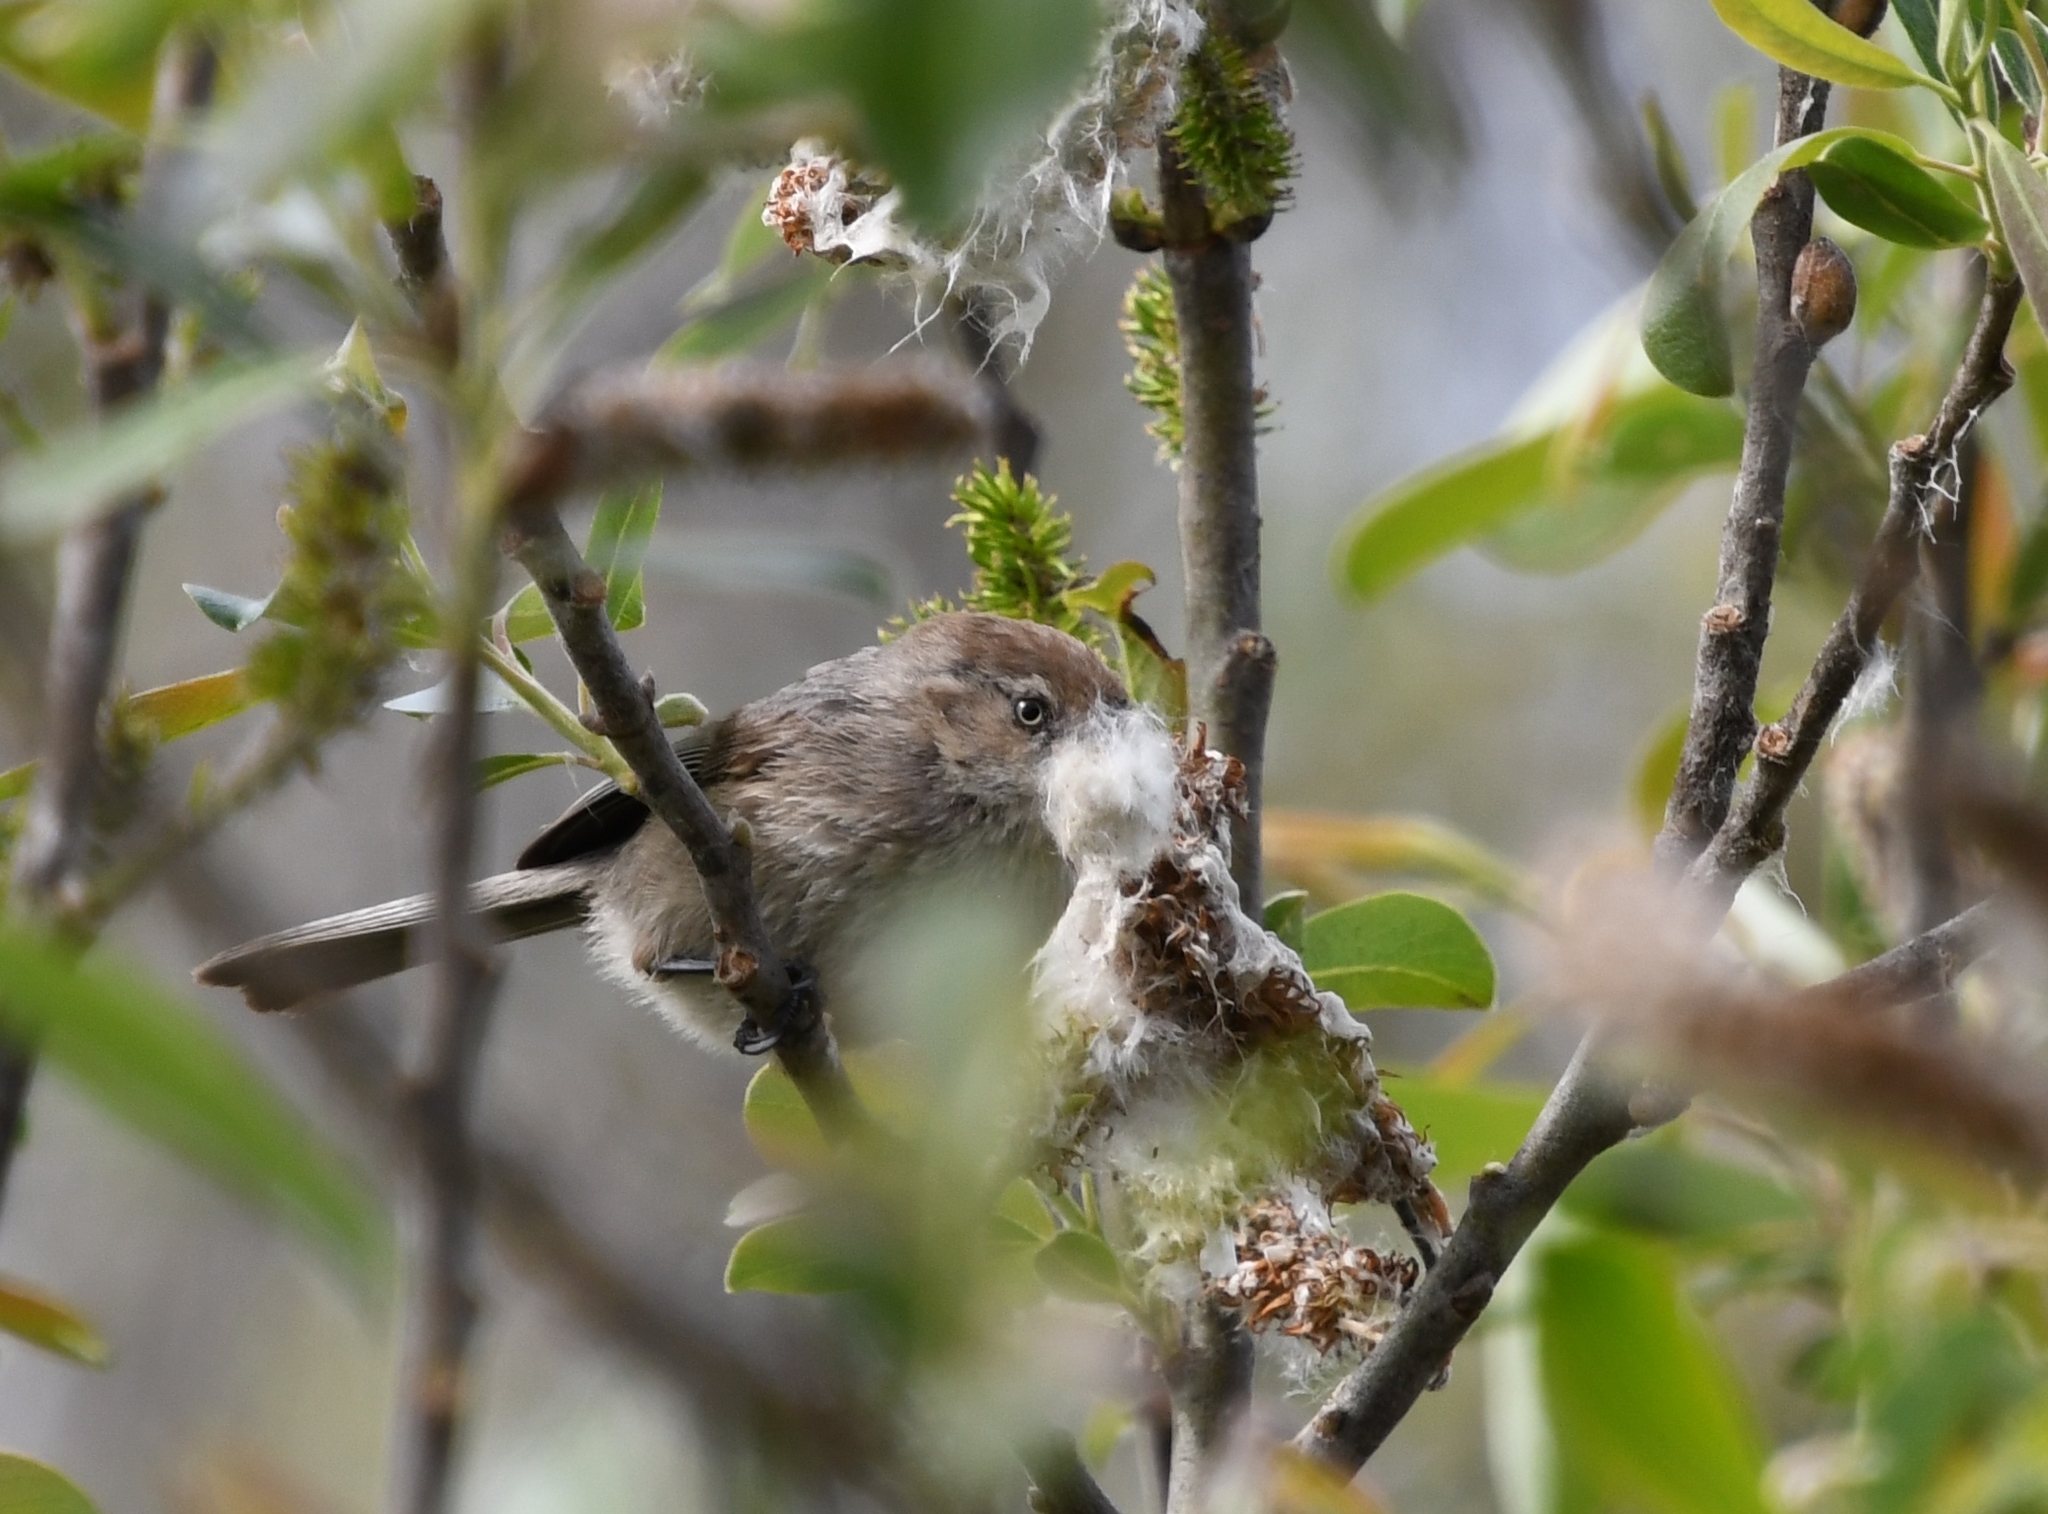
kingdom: Animalia
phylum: Chordata
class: Aves
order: Passeriformes
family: Aegithalidae
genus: Psaltriparus
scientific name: Psaltriparus minimus
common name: American bushtit
